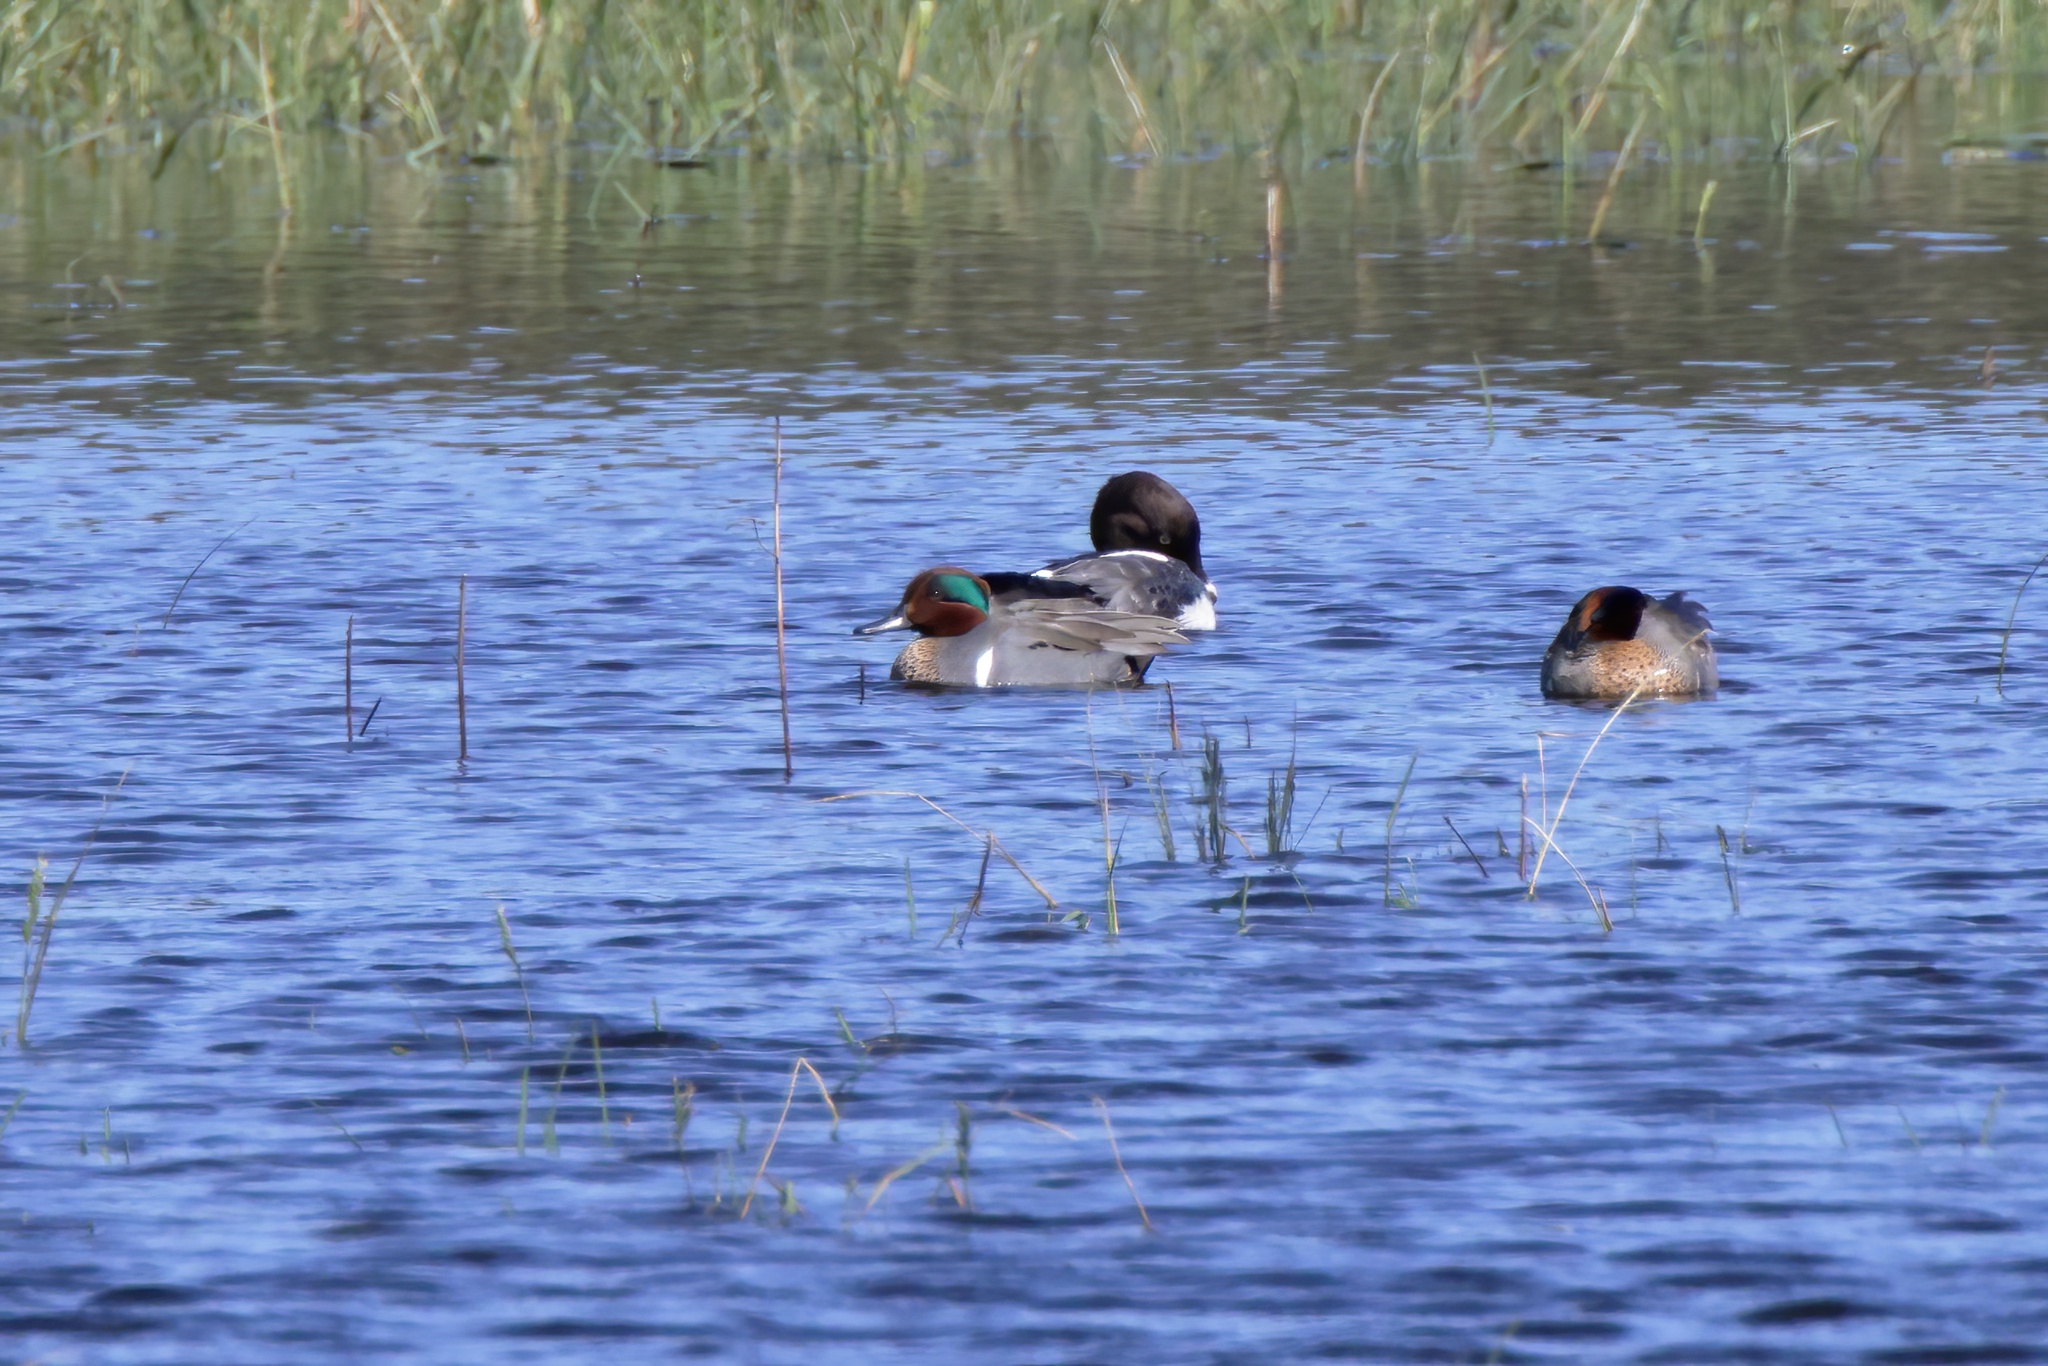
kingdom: Animalia
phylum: Chordata
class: Aves
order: Anseriformes
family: Anatidae
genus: Anas
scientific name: Anas crecca
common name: Eurasian teal
